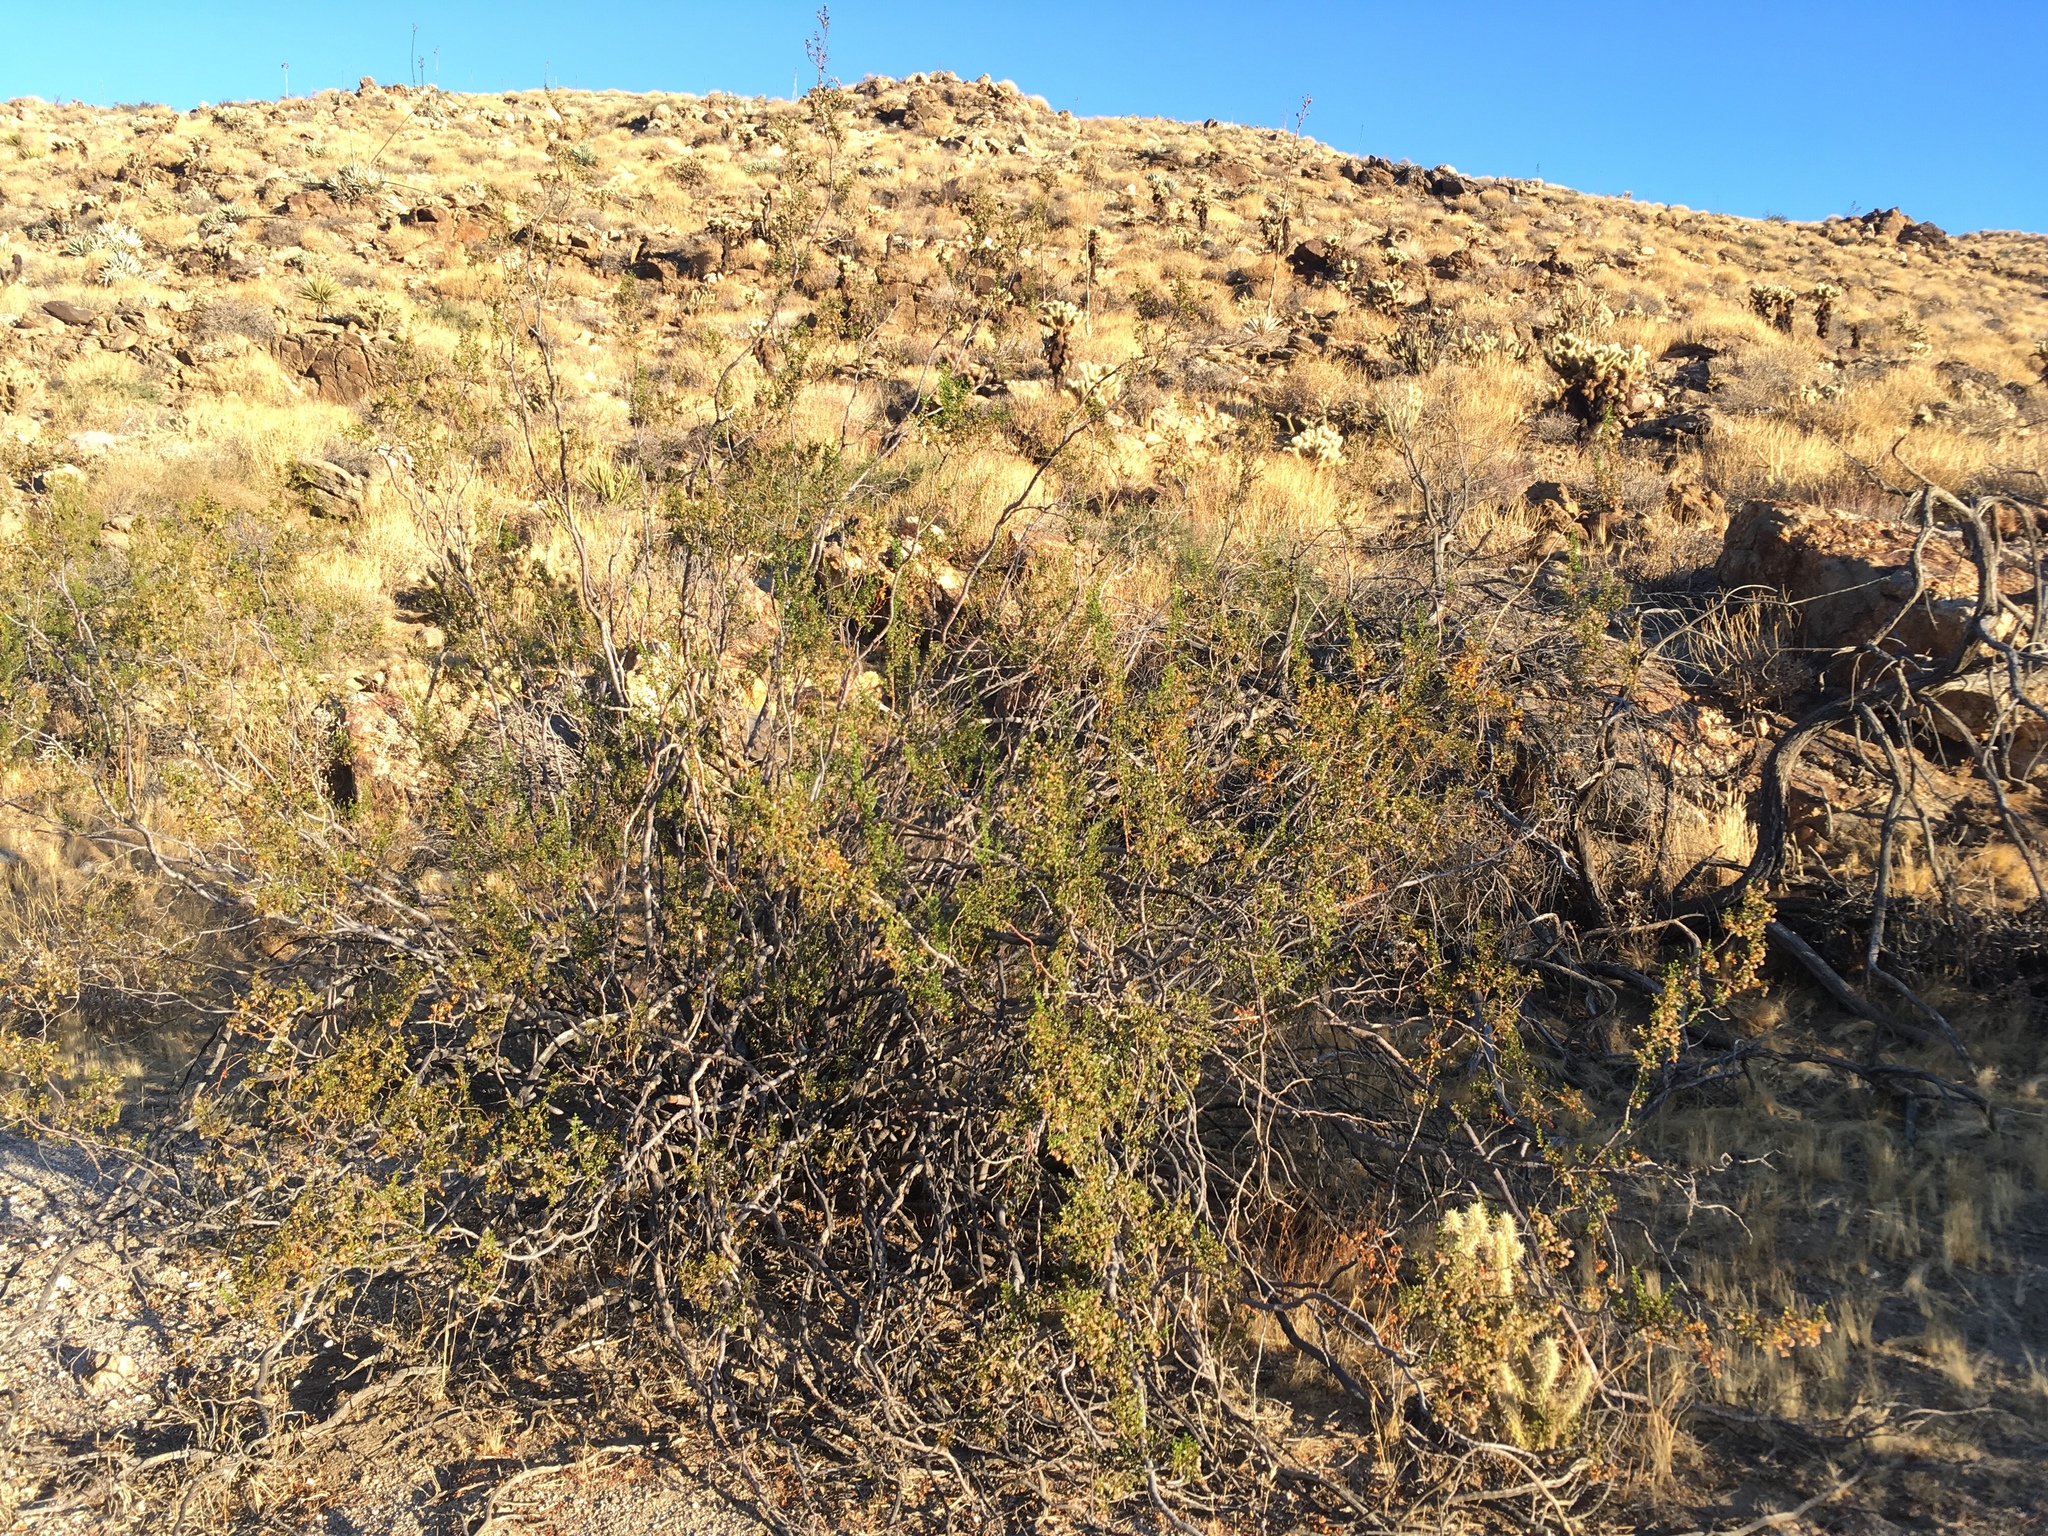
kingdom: Plantae
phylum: Tracheophyta
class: Magnoliopsida
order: Zygophyllales
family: Zygophyllaceae
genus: Larrea
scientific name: Larrea tridentata
